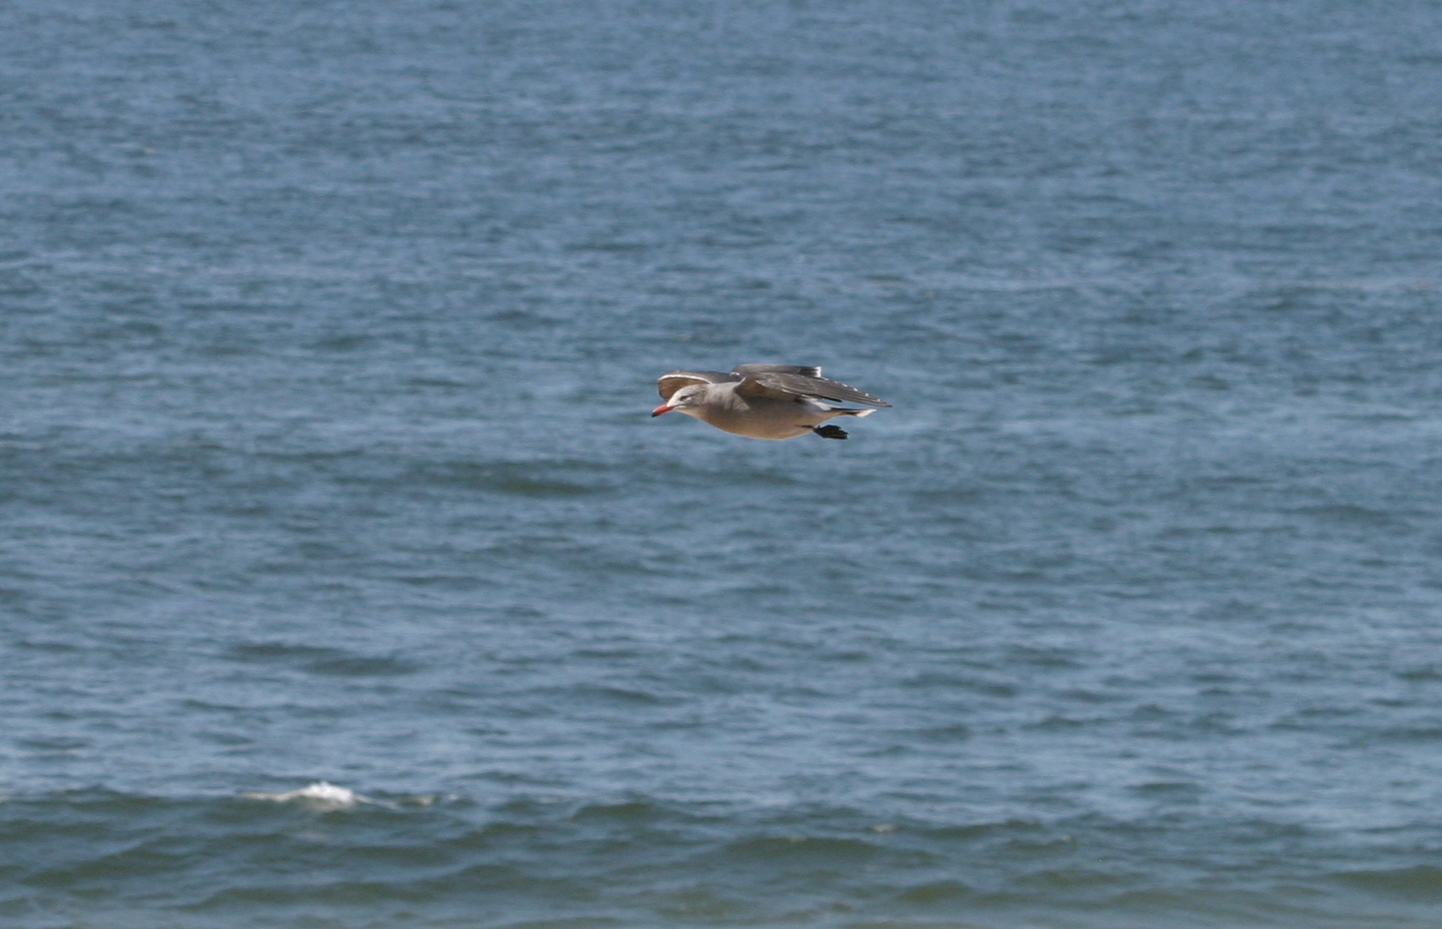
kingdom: Animalia
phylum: Chordata
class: Aves
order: Charadriiformes
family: Laridae
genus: Larus
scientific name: Larus heermanni
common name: Heermann's gull
